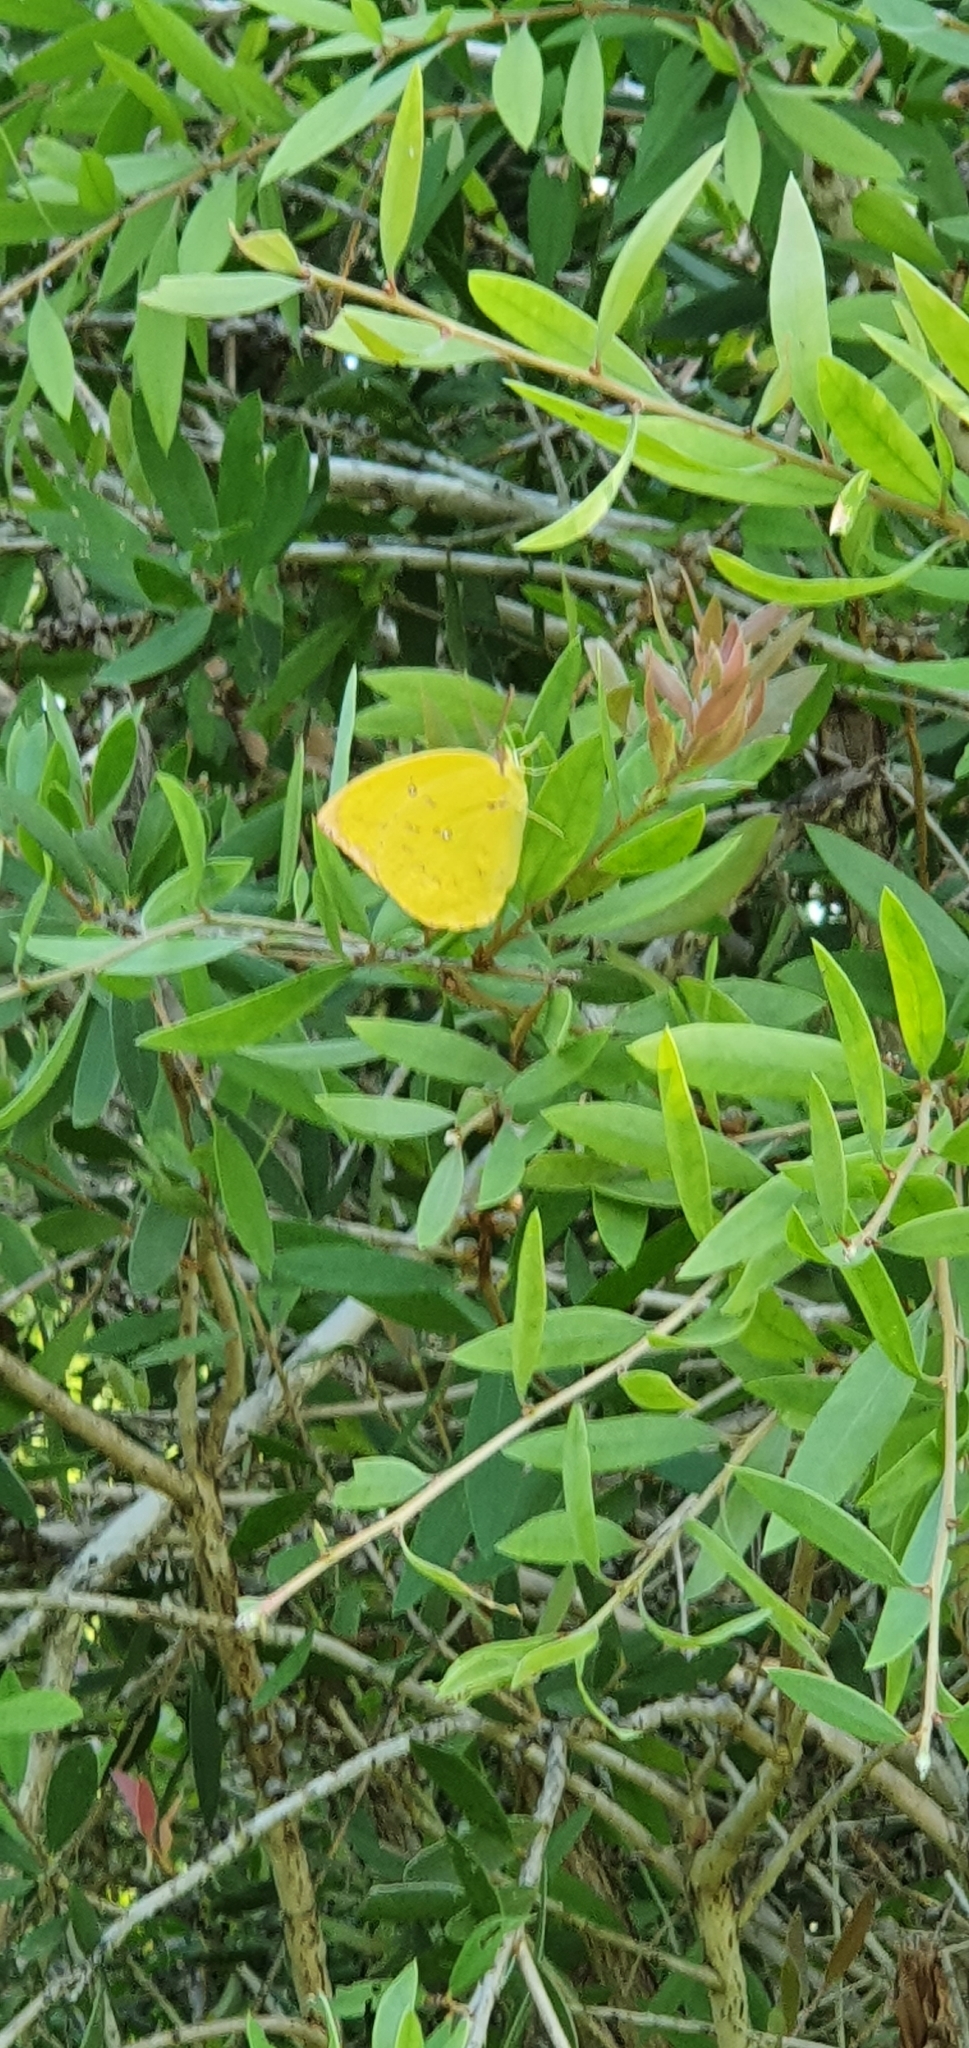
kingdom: Animalia
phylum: Arthropoda
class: Insecta
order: Lepidoptera
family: Pieridae
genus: Catopsilia
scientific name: Catopsilia pomona
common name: Common emigrant
